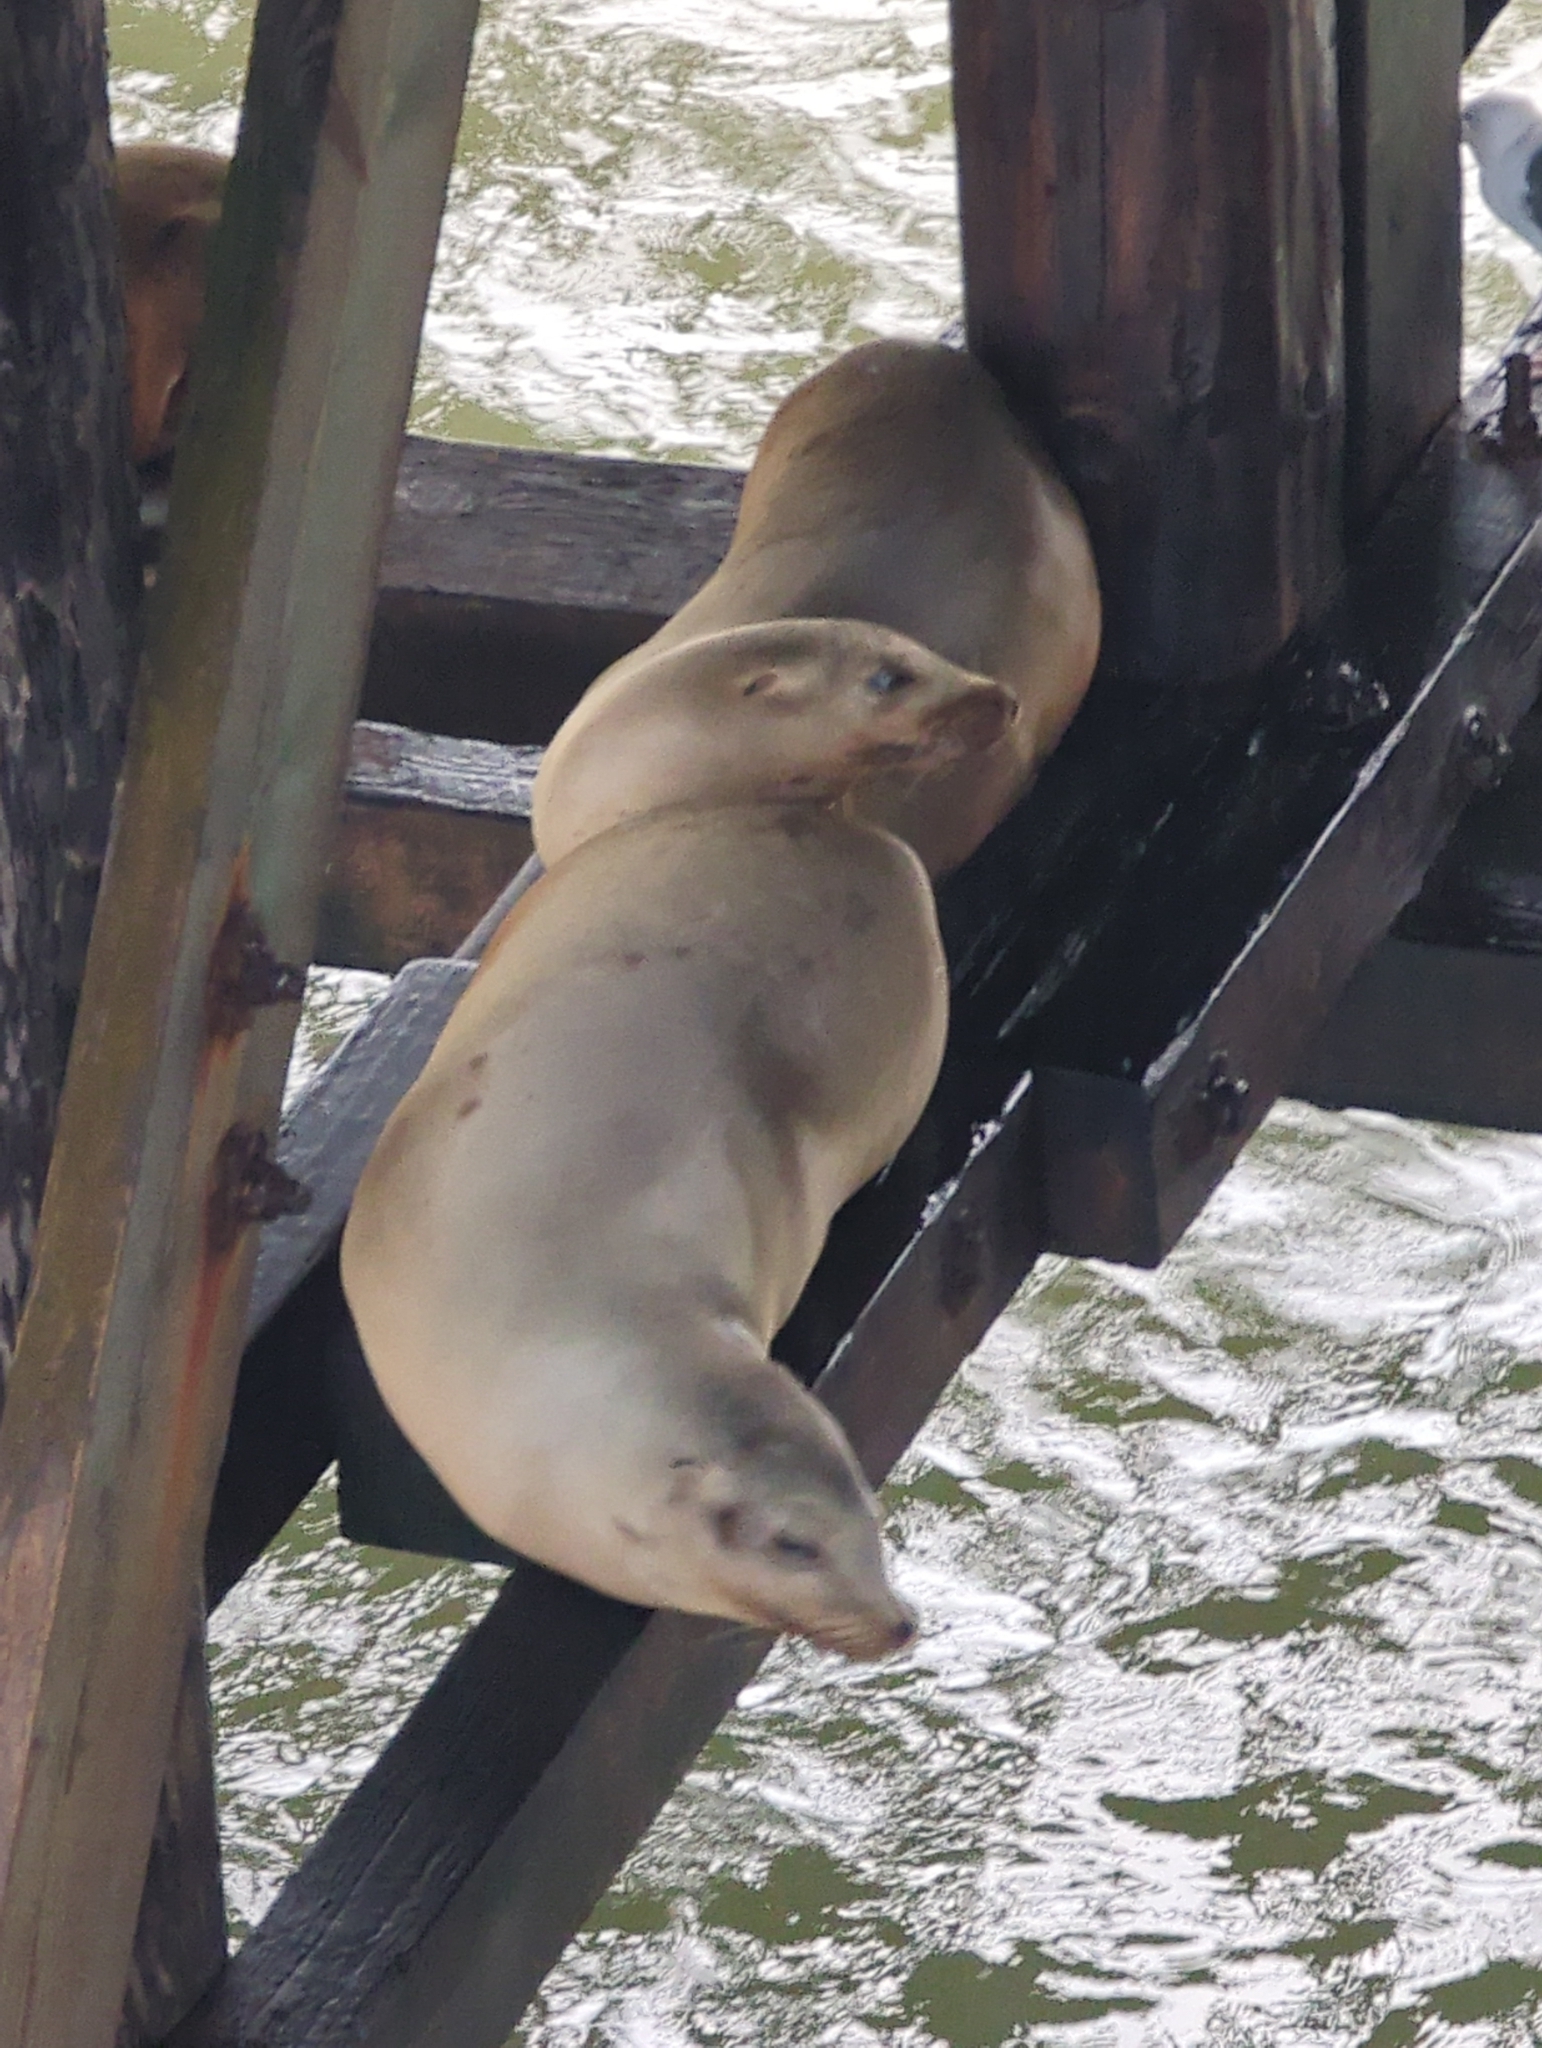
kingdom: Animalia
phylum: Chordata
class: Mammalia
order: Carnivora
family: Otariidae
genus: Zalophus
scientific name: Zalophus californianus
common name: California sea lion
